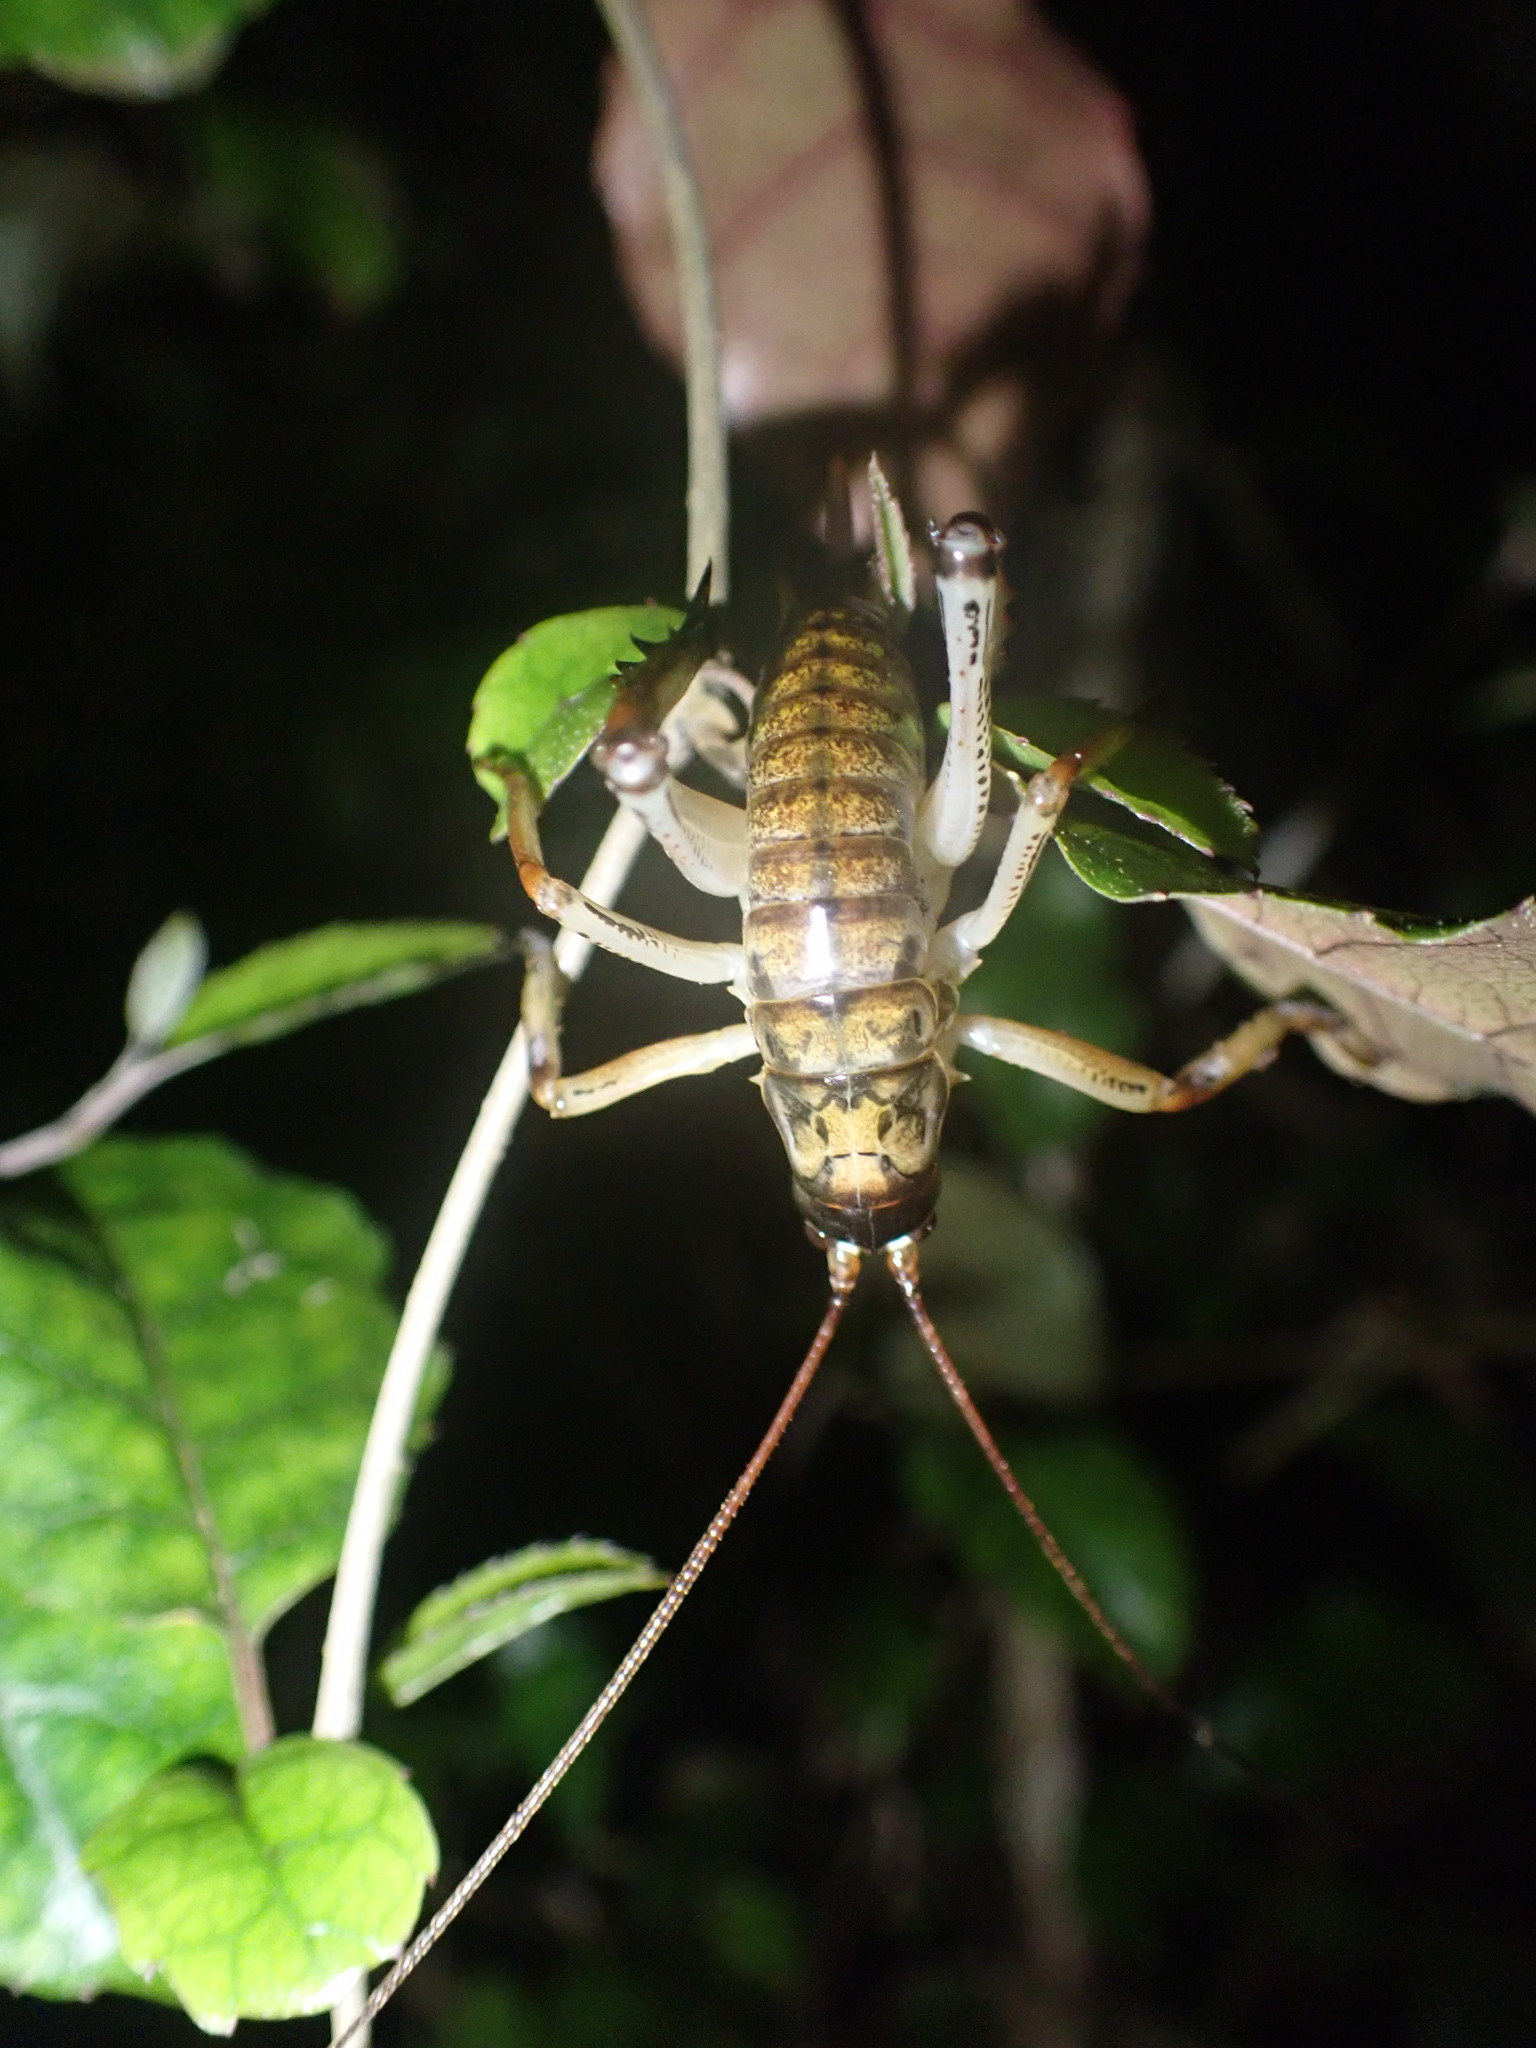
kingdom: Animalia
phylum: Arthropoda
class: Insecta
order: Orthoptera
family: Anostostomatidae
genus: Hemideina
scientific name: Hemideina thoracica
